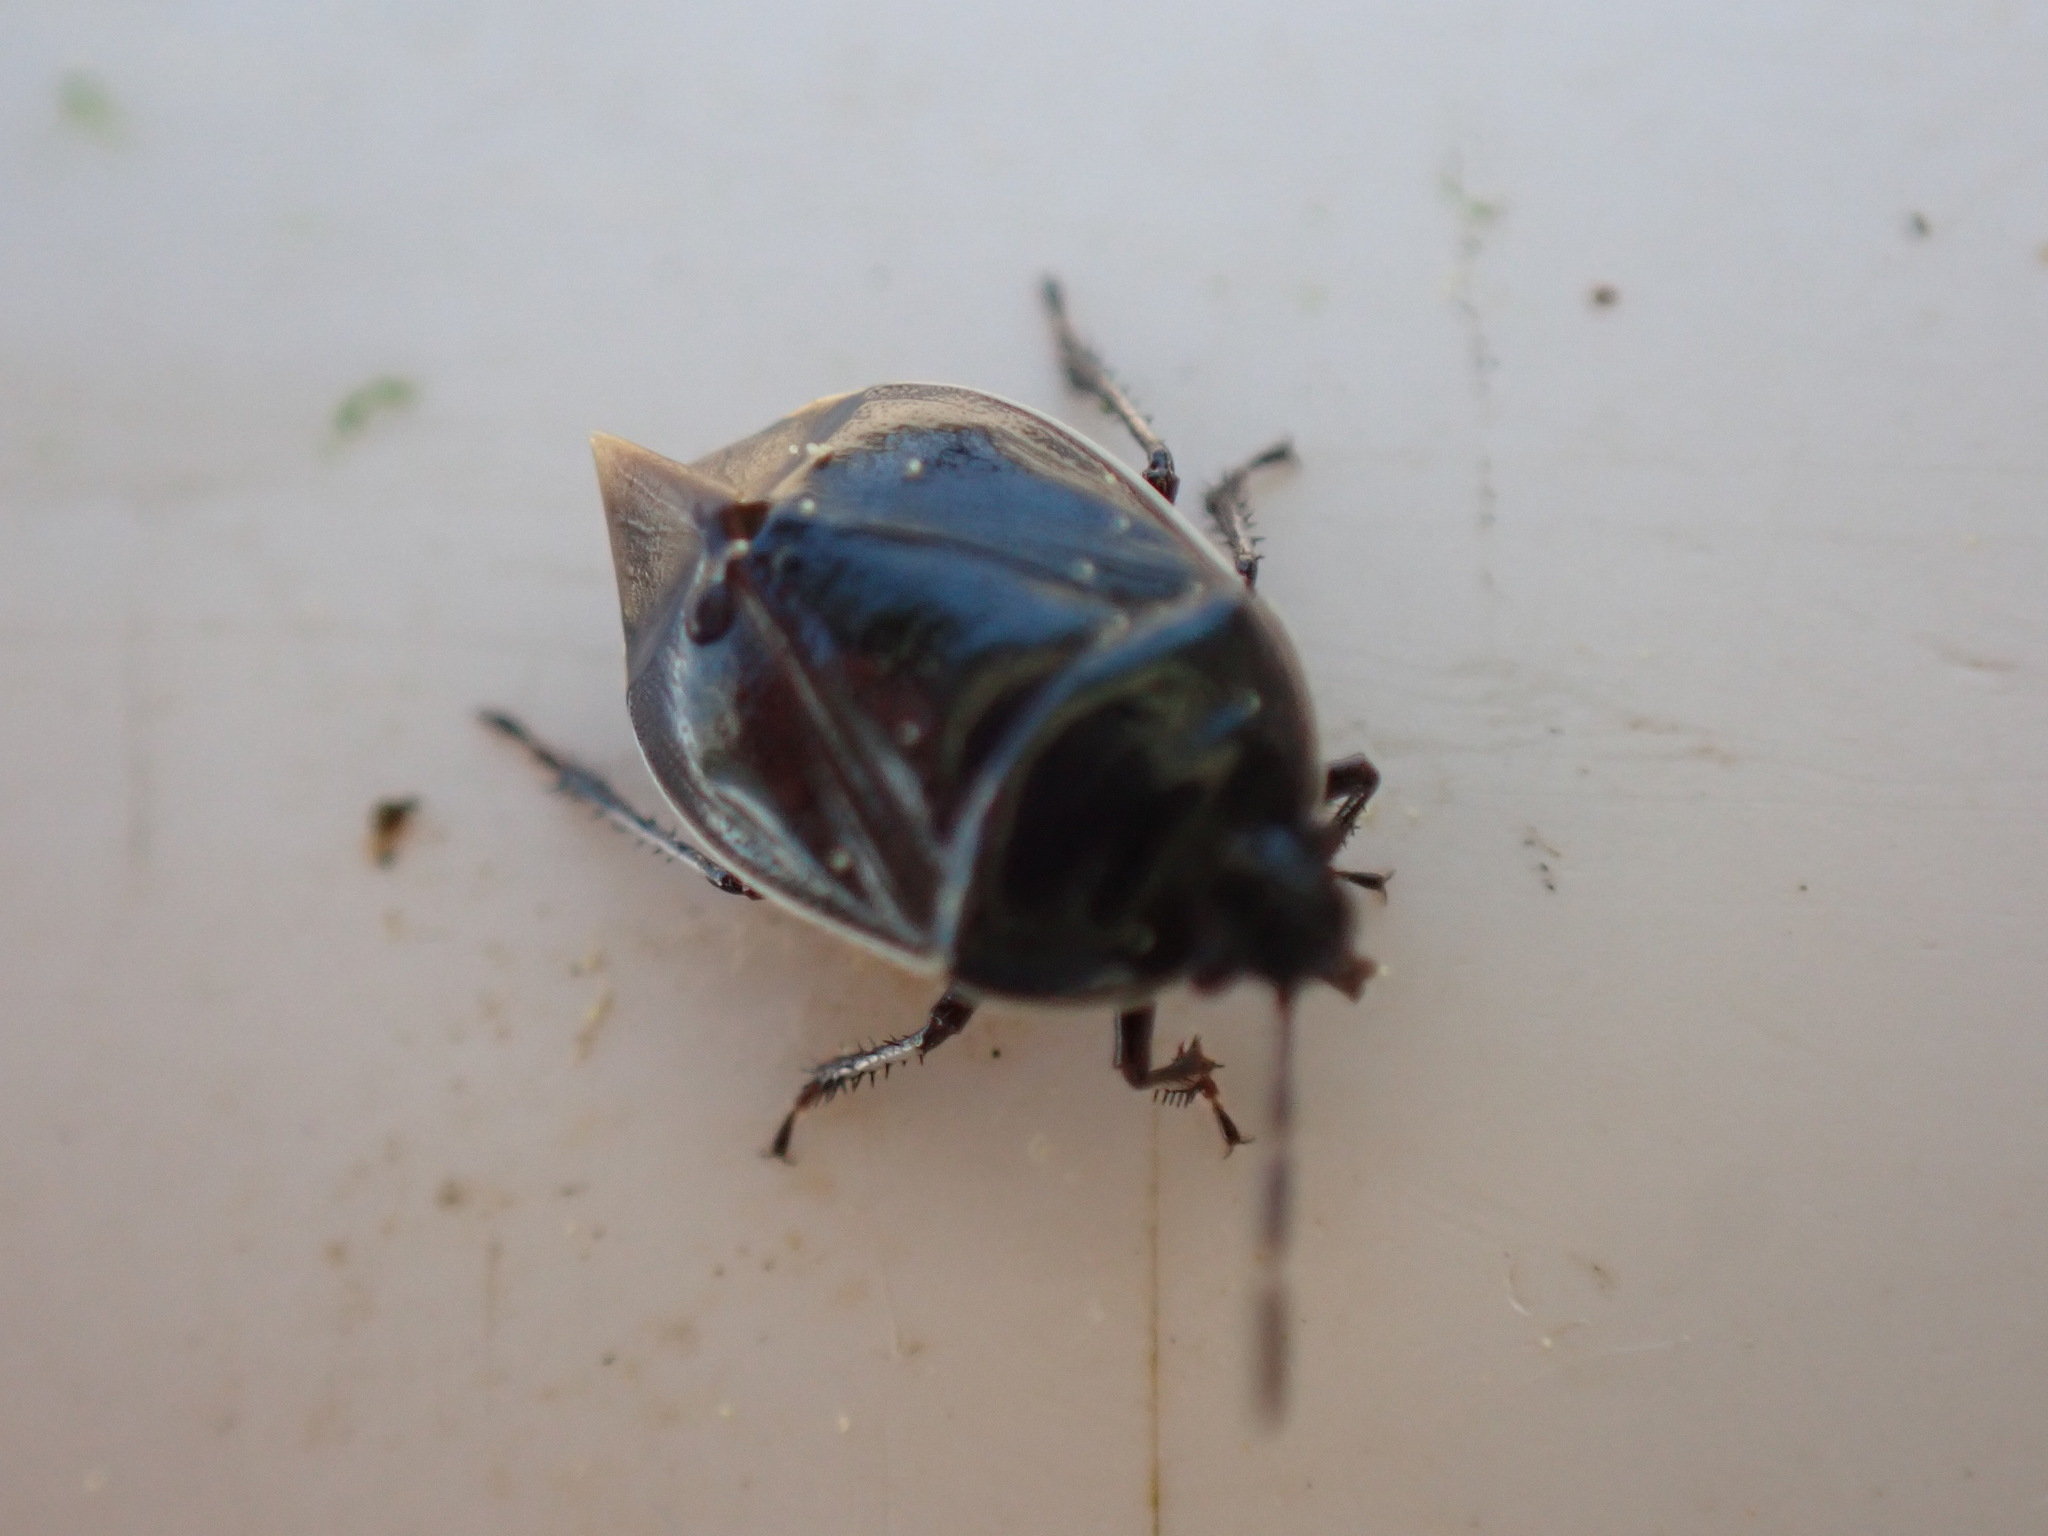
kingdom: Animalia
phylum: Arthropoda
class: Insecta
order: Hemiptera
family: Cydnidae
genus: Sehirus
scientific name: Sehirus cinctus
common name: White-margined burrower bug
